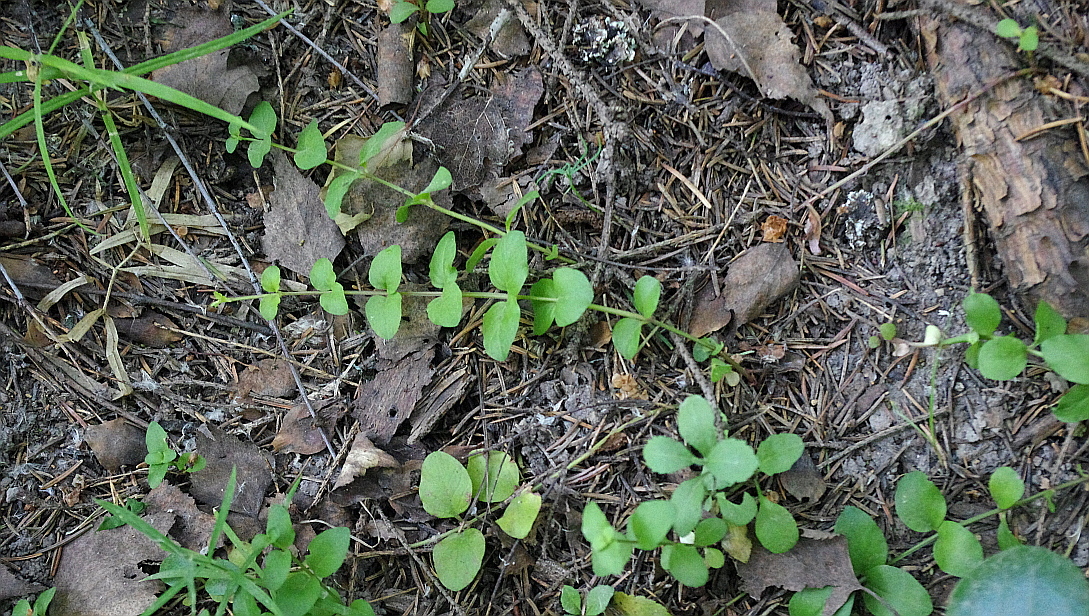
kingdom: Plantae
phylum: Tracheophyta
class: Magnoliopsida
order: Ericales
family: Primulaceae
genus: Lysimachia
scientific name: Lysimachia nummularia
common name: Moneywort
